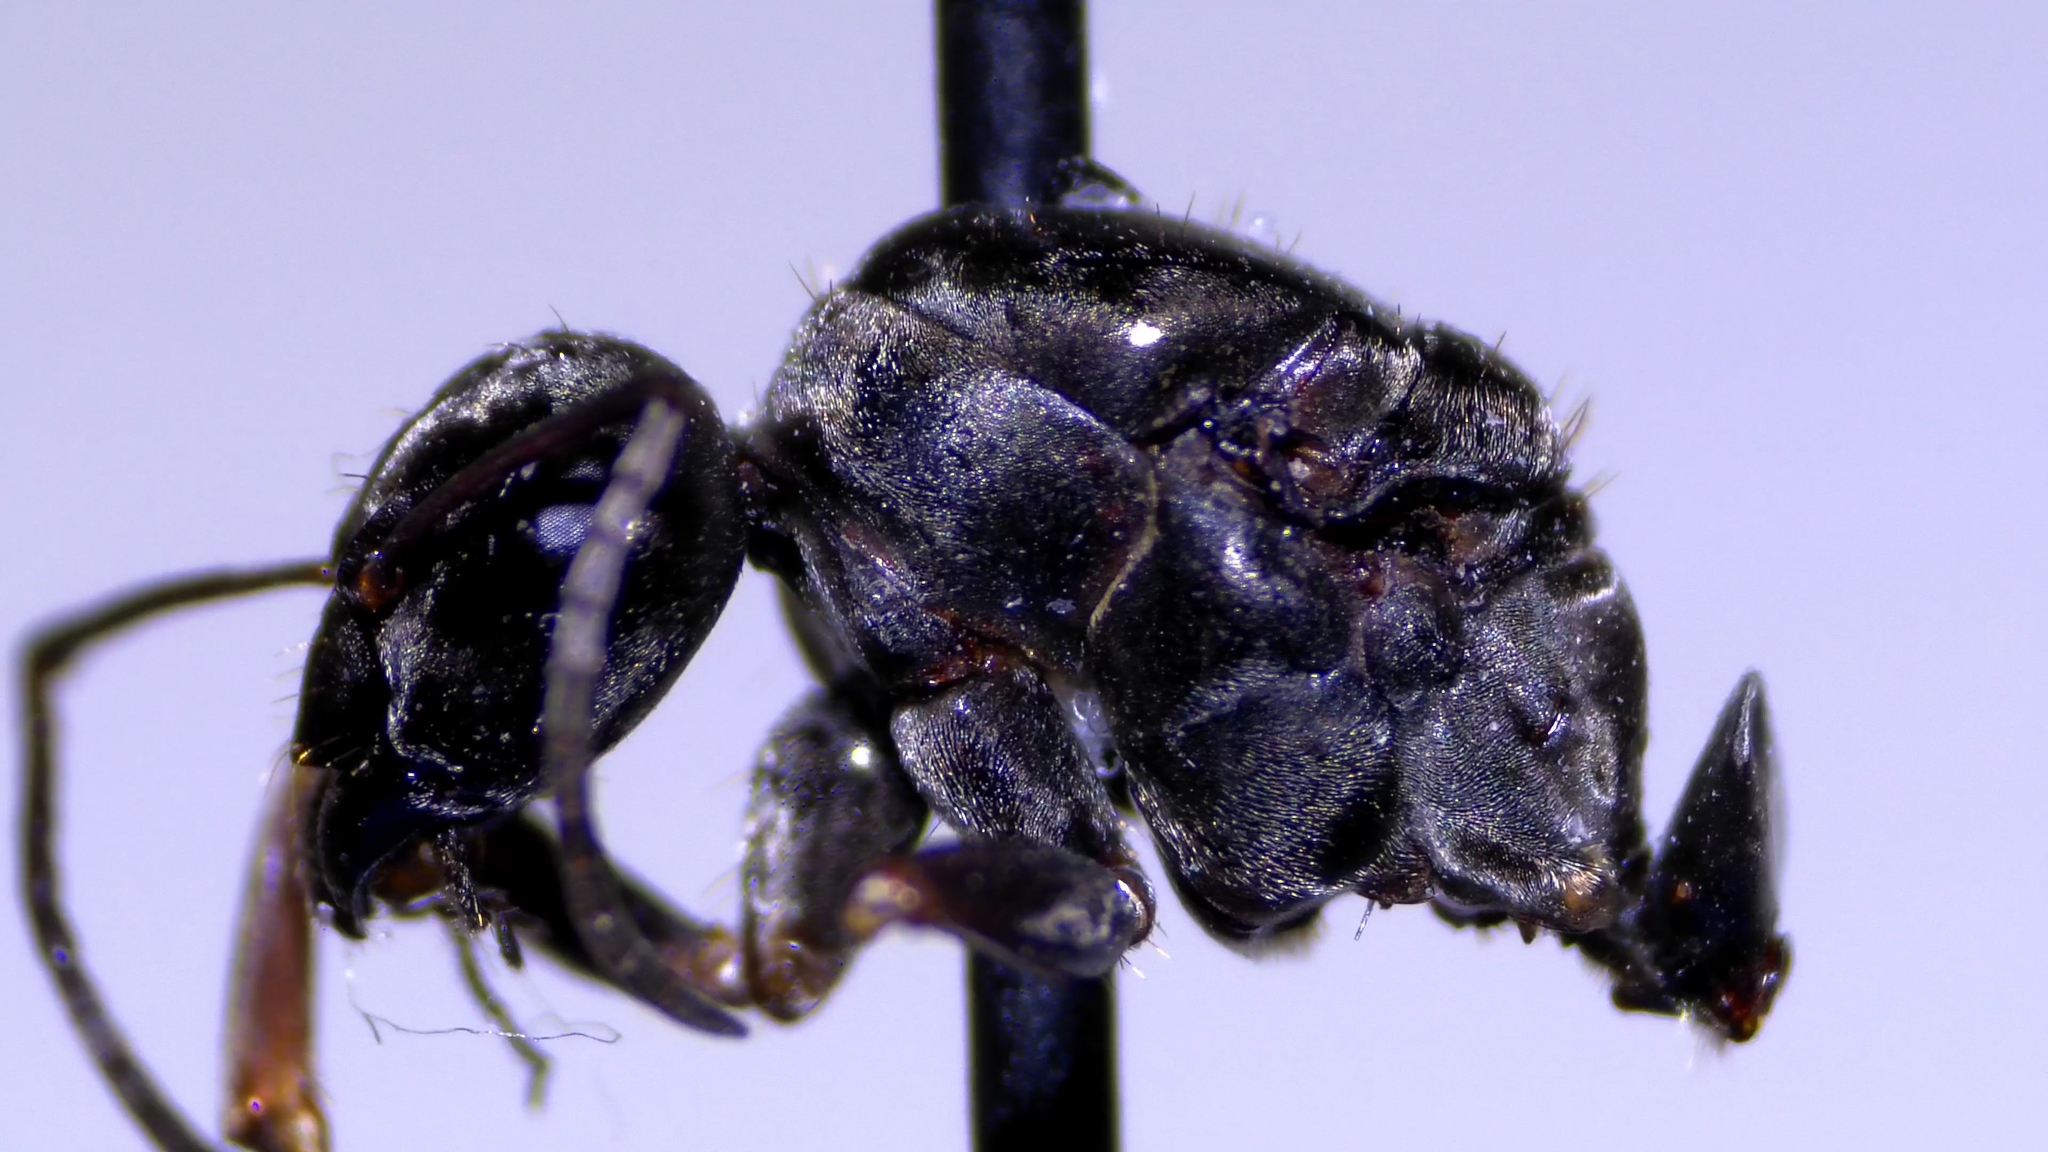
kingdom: Animalia
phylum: Arthropoda
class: Insecta
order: Hymenoptera
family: Formicidae
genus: Formica
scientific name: Formica subsericea
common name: Silky field ant
